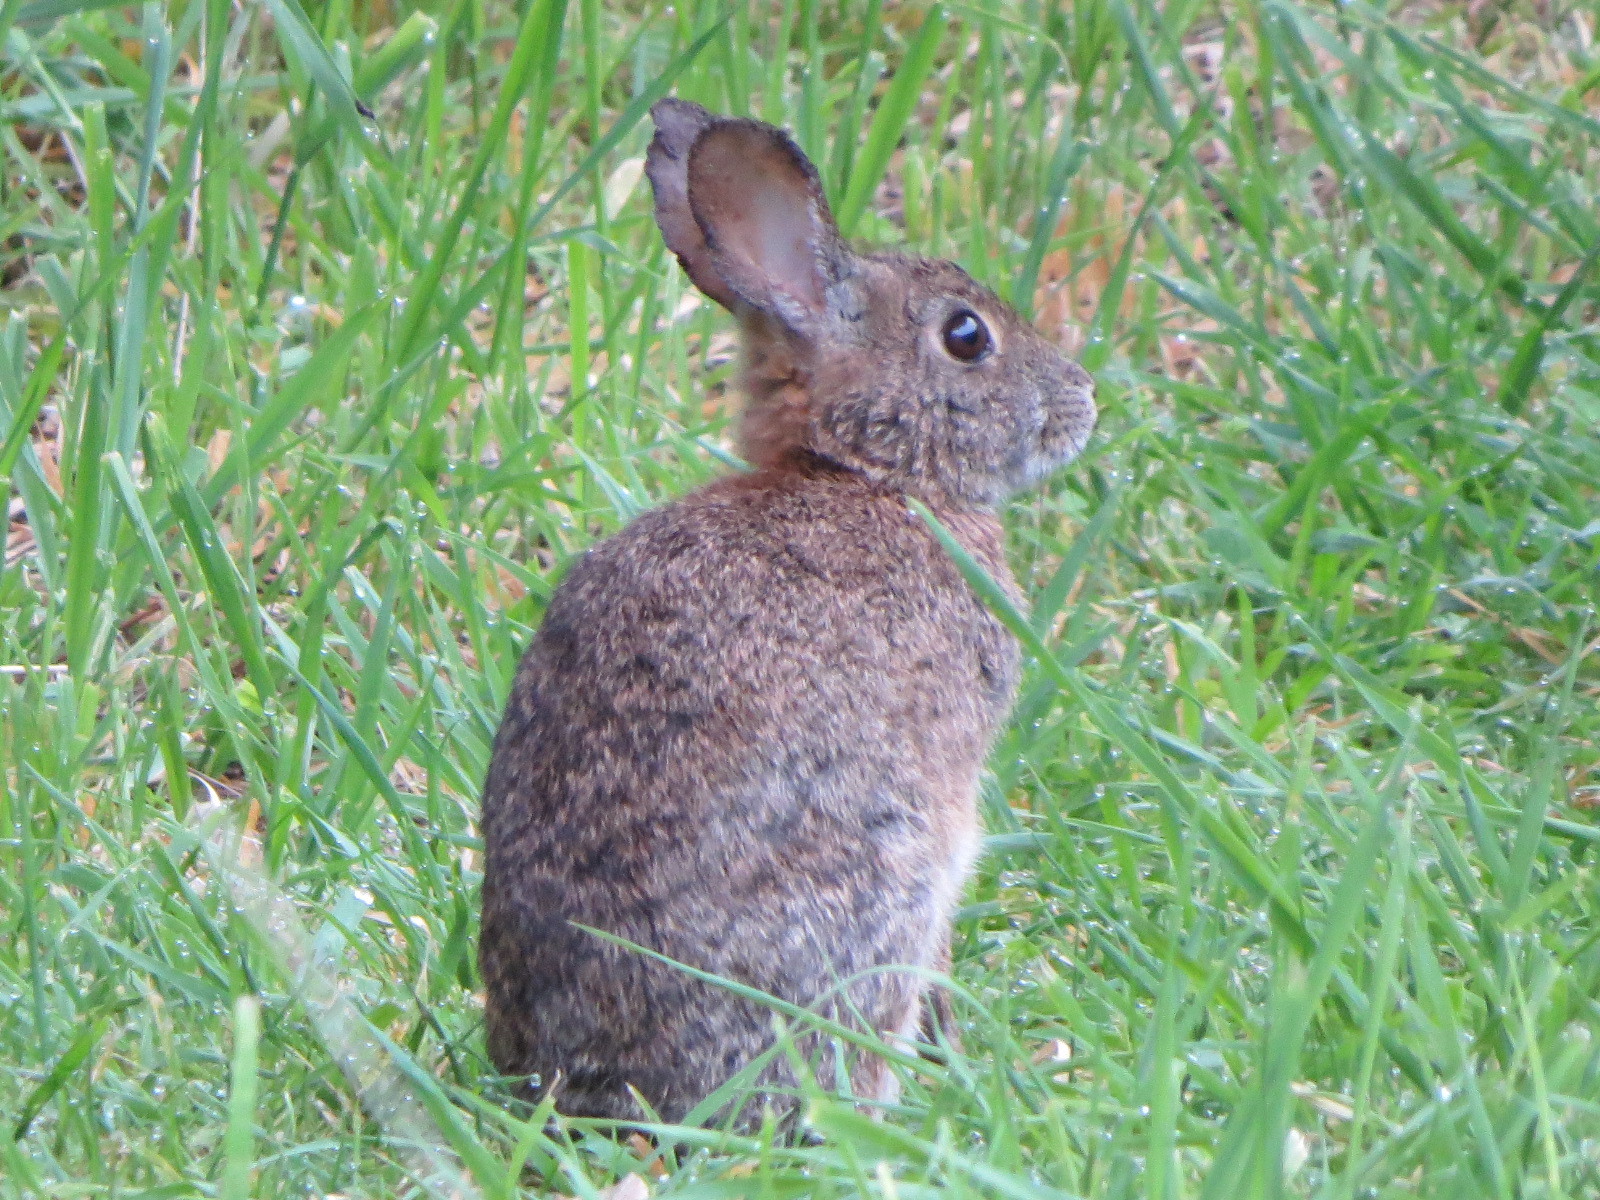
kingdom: Animalia
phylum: Chordata
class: Mammalia
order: Lagomorpha
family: Leporidae
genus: Sylvilagus
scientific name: Sylvilagus bachmani
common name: Brush rabbit
